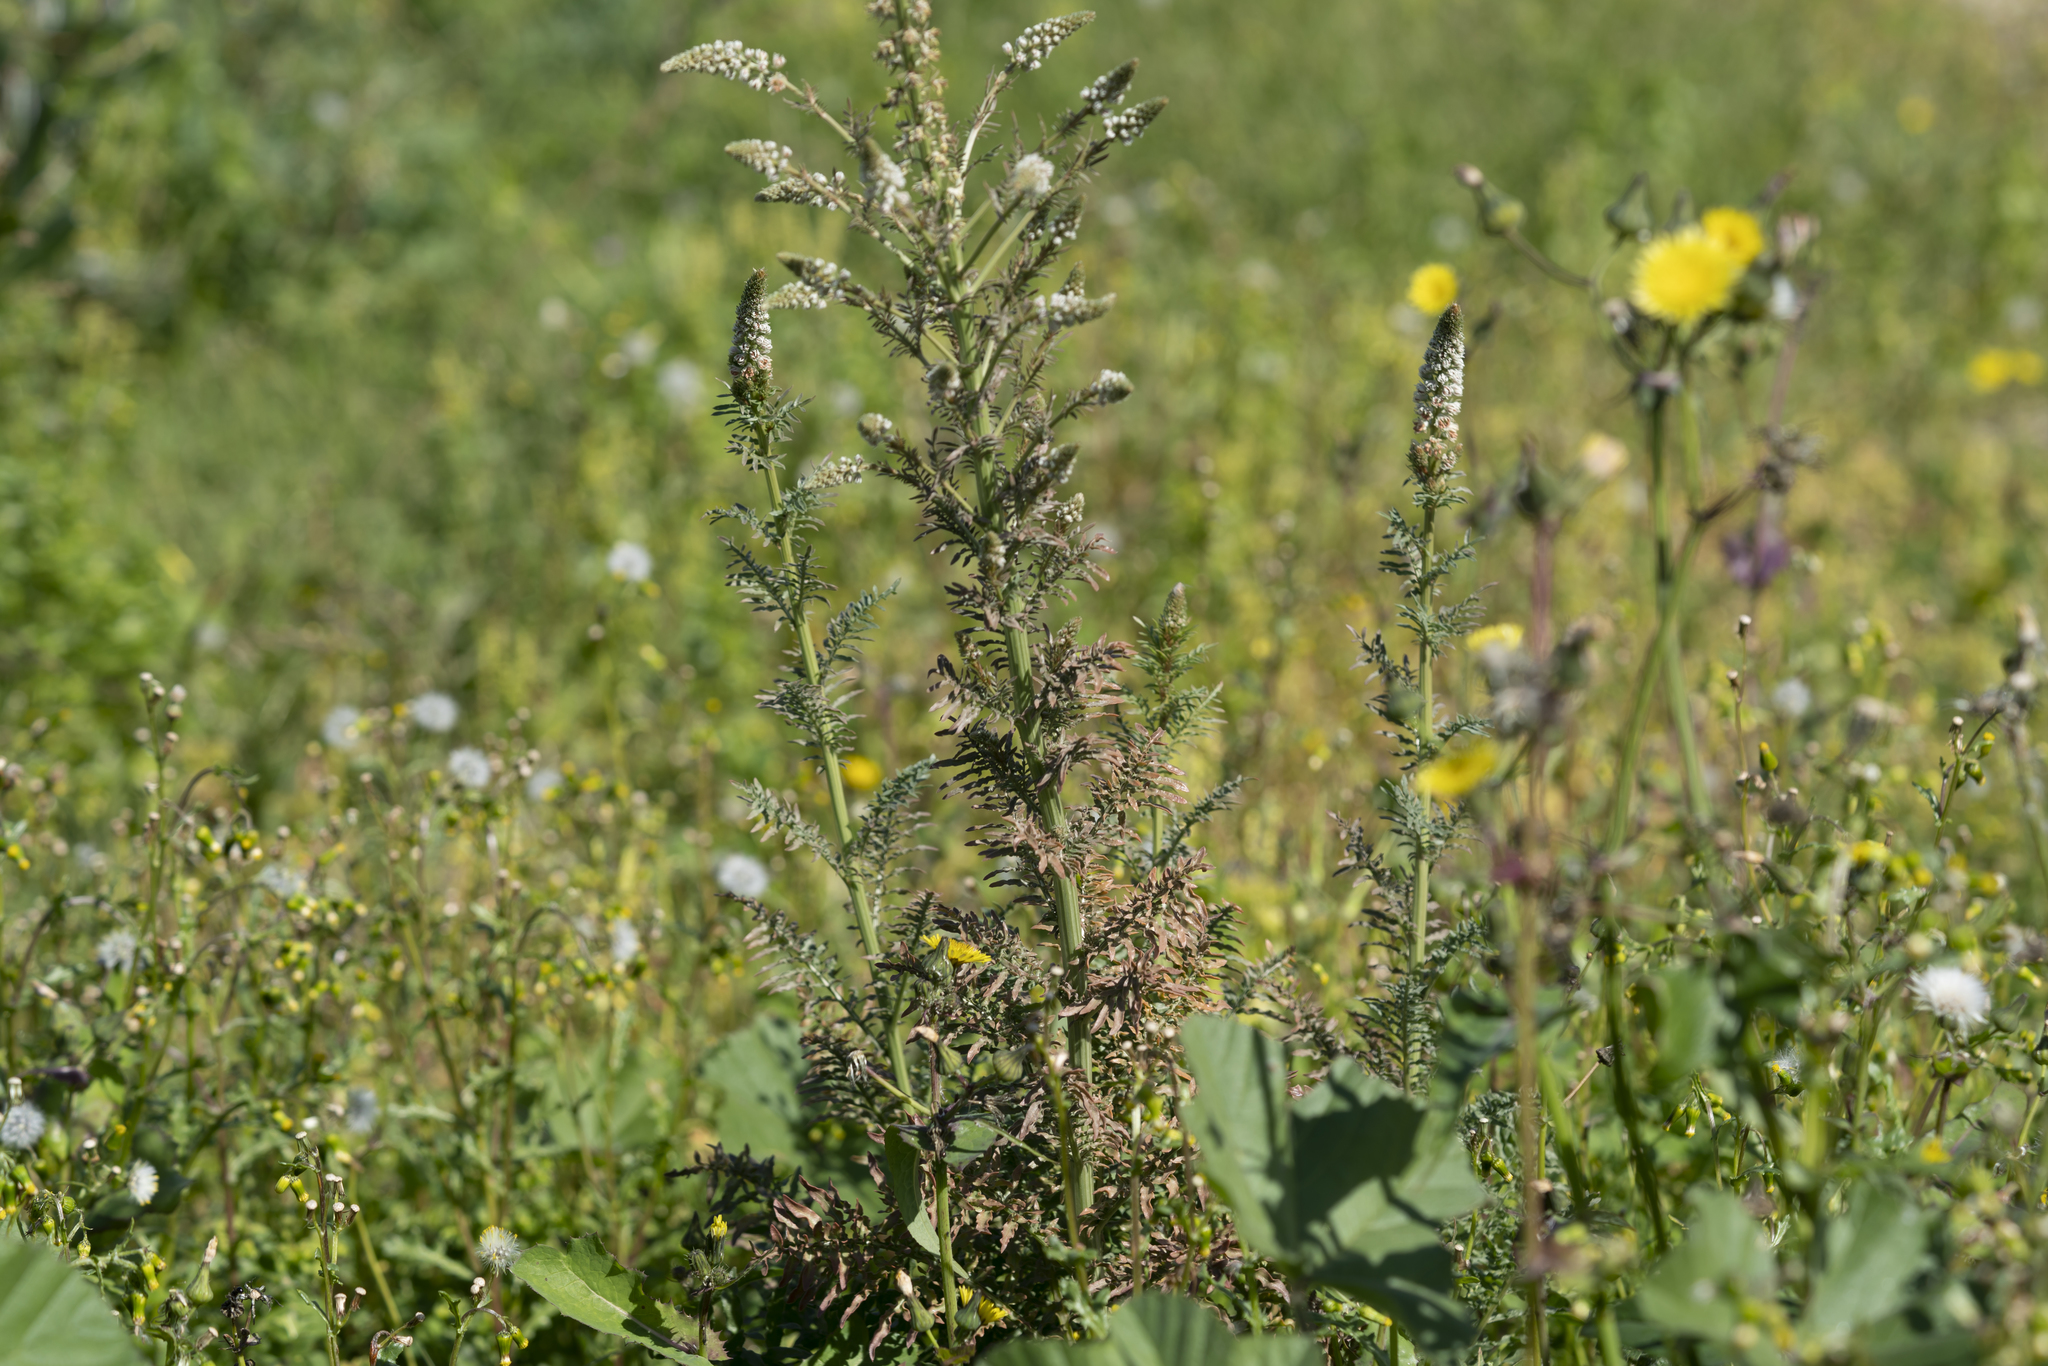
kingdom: Plantae
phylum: Tracheophyta
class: Magnoliopsida
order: Brassicales
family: Resedaceae
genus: Reseda
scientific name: Reseda alba
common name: White mignonette
